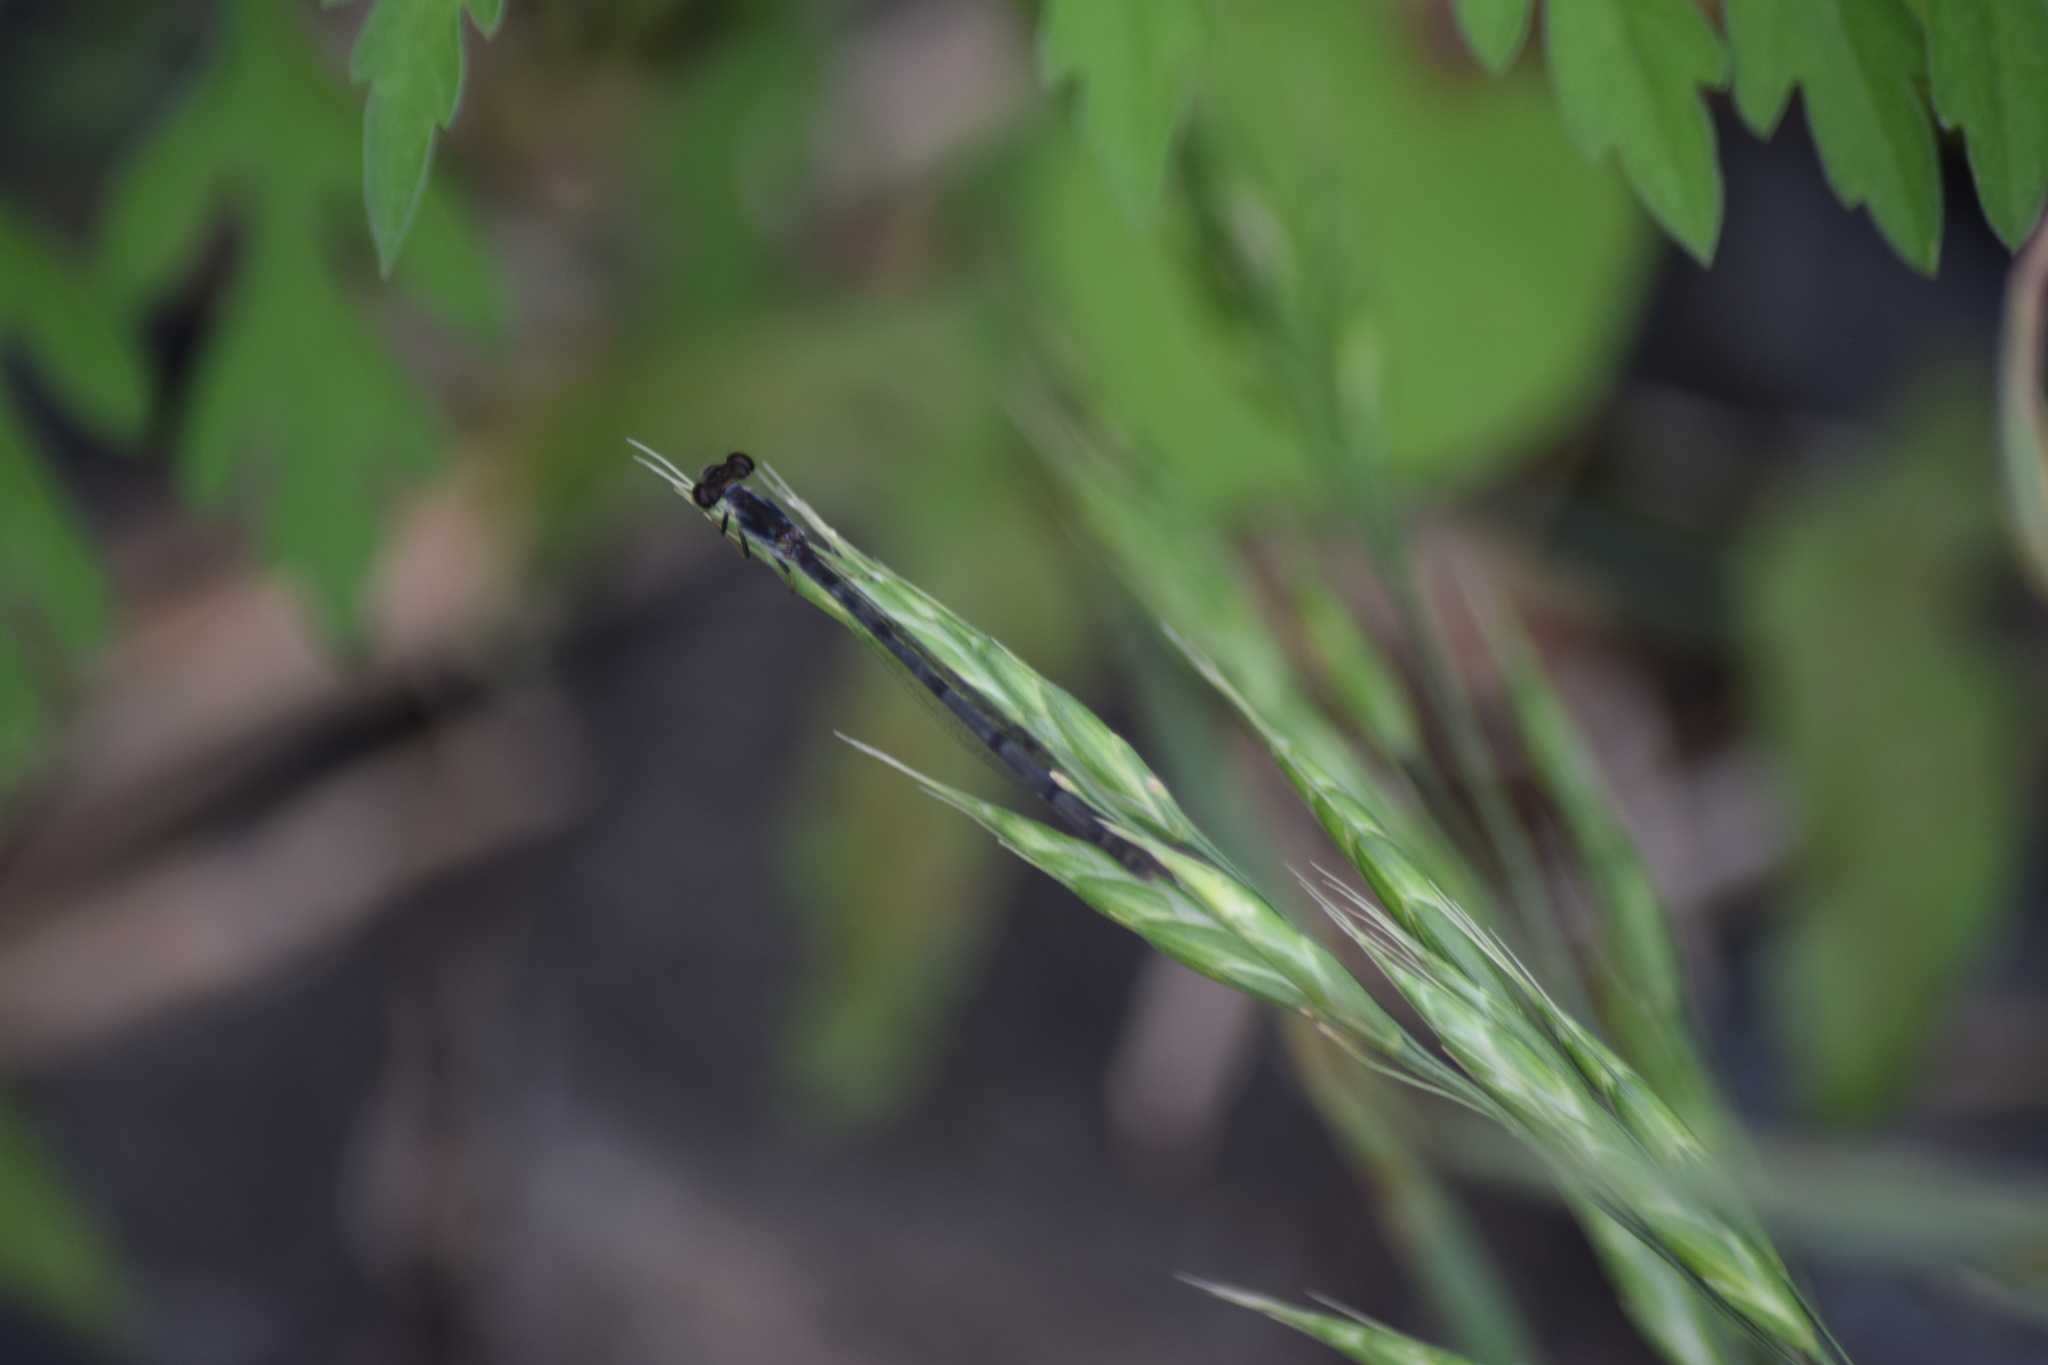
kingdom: Animalia
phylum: Arthropoda
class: Insecta
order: Odonata
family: Coenagrionidae
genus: Ischnura
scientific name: Ischnura posita
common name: Fragile forktail
